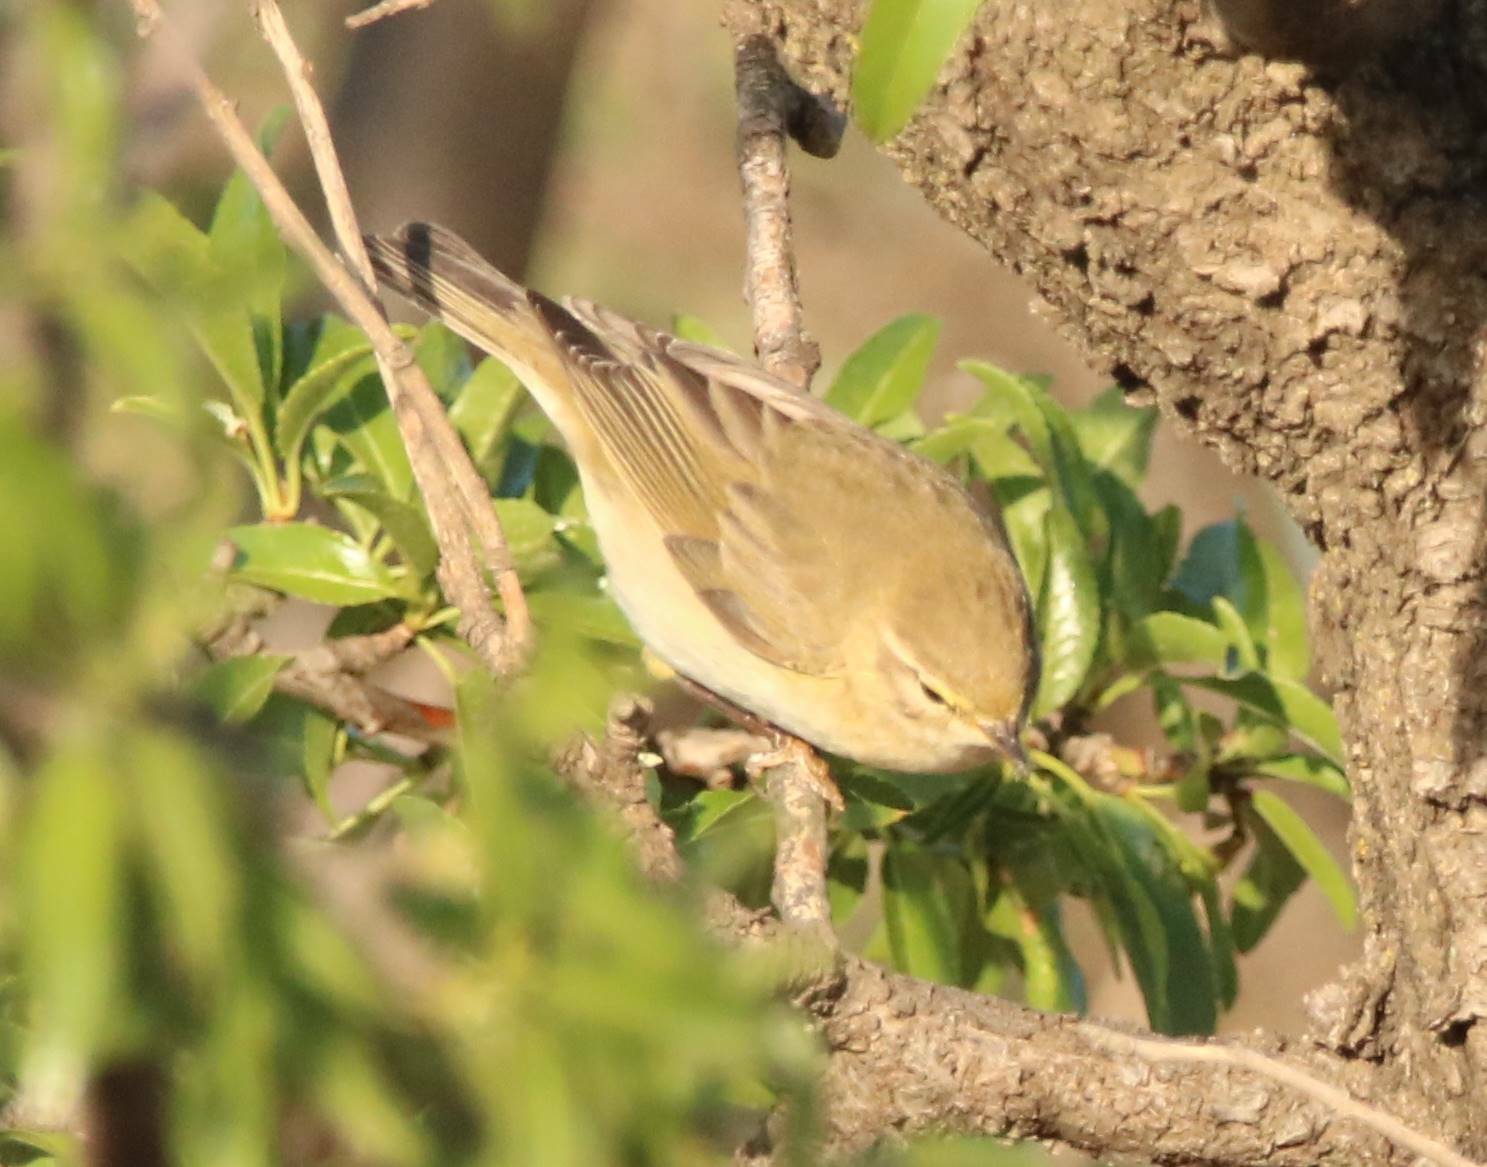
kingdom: Animalia
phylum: Chordata
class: Aves
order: Passeriformes
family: Phylloscopidae
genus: Phylloscopus
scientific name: Phylloscopus collybita
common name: Common chiffchaff
